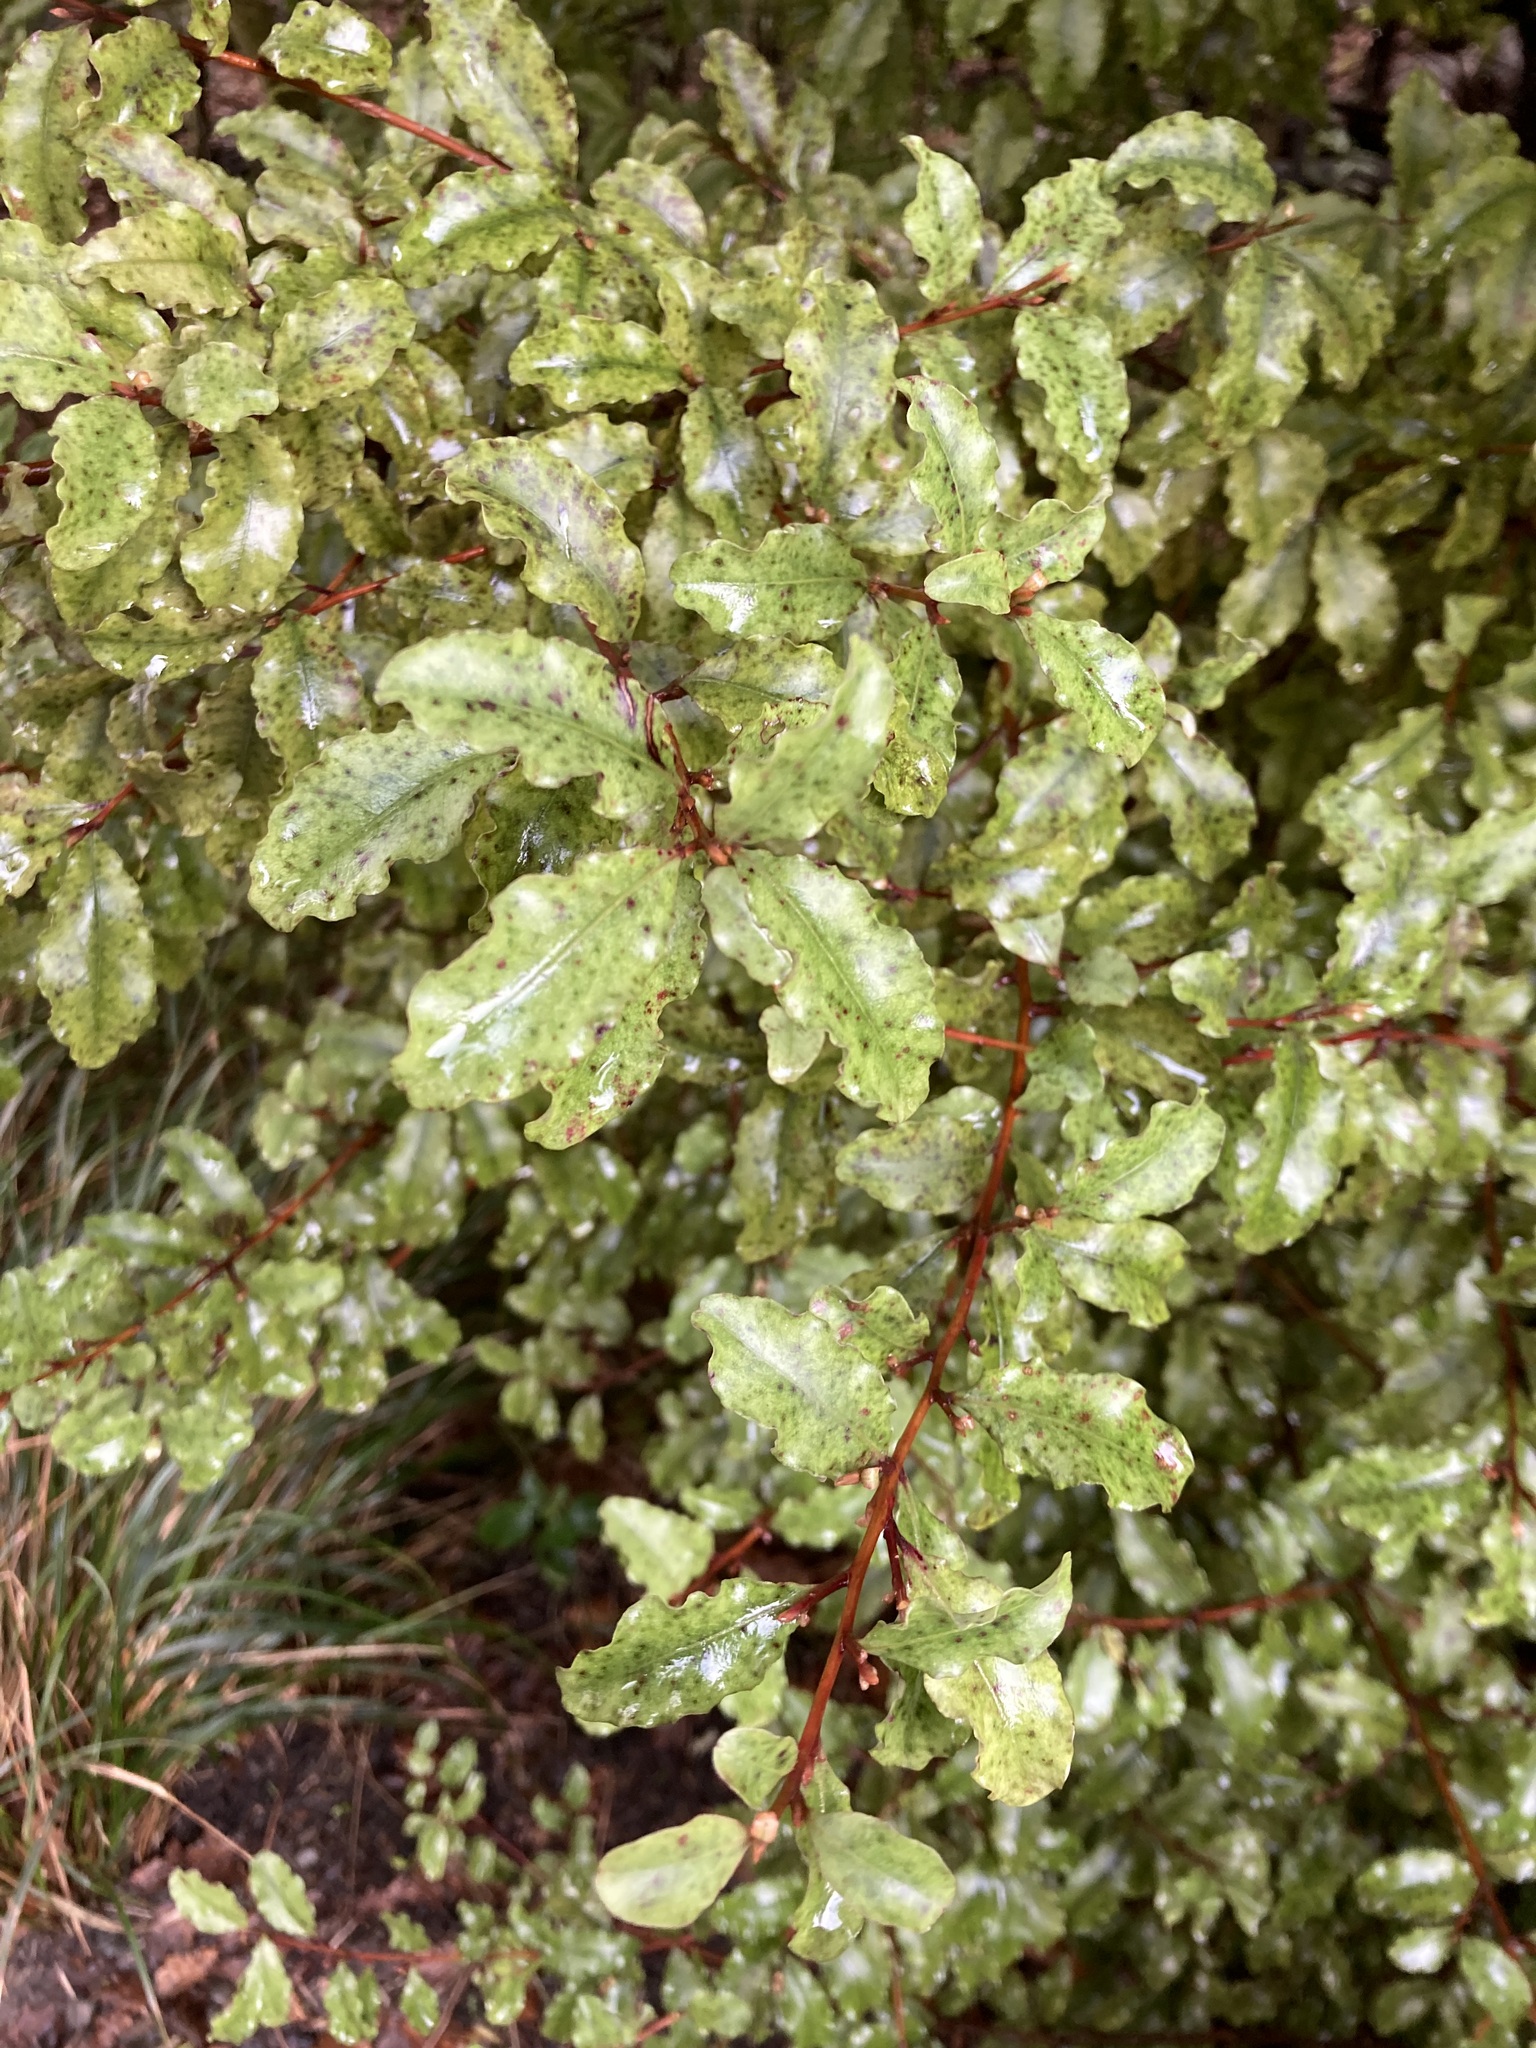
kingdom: Plantae
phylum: Tracheophyta
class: Magnoliopsida
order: Ericales
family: Primulaceae
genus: Myrsine
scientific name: Myrsine australis
